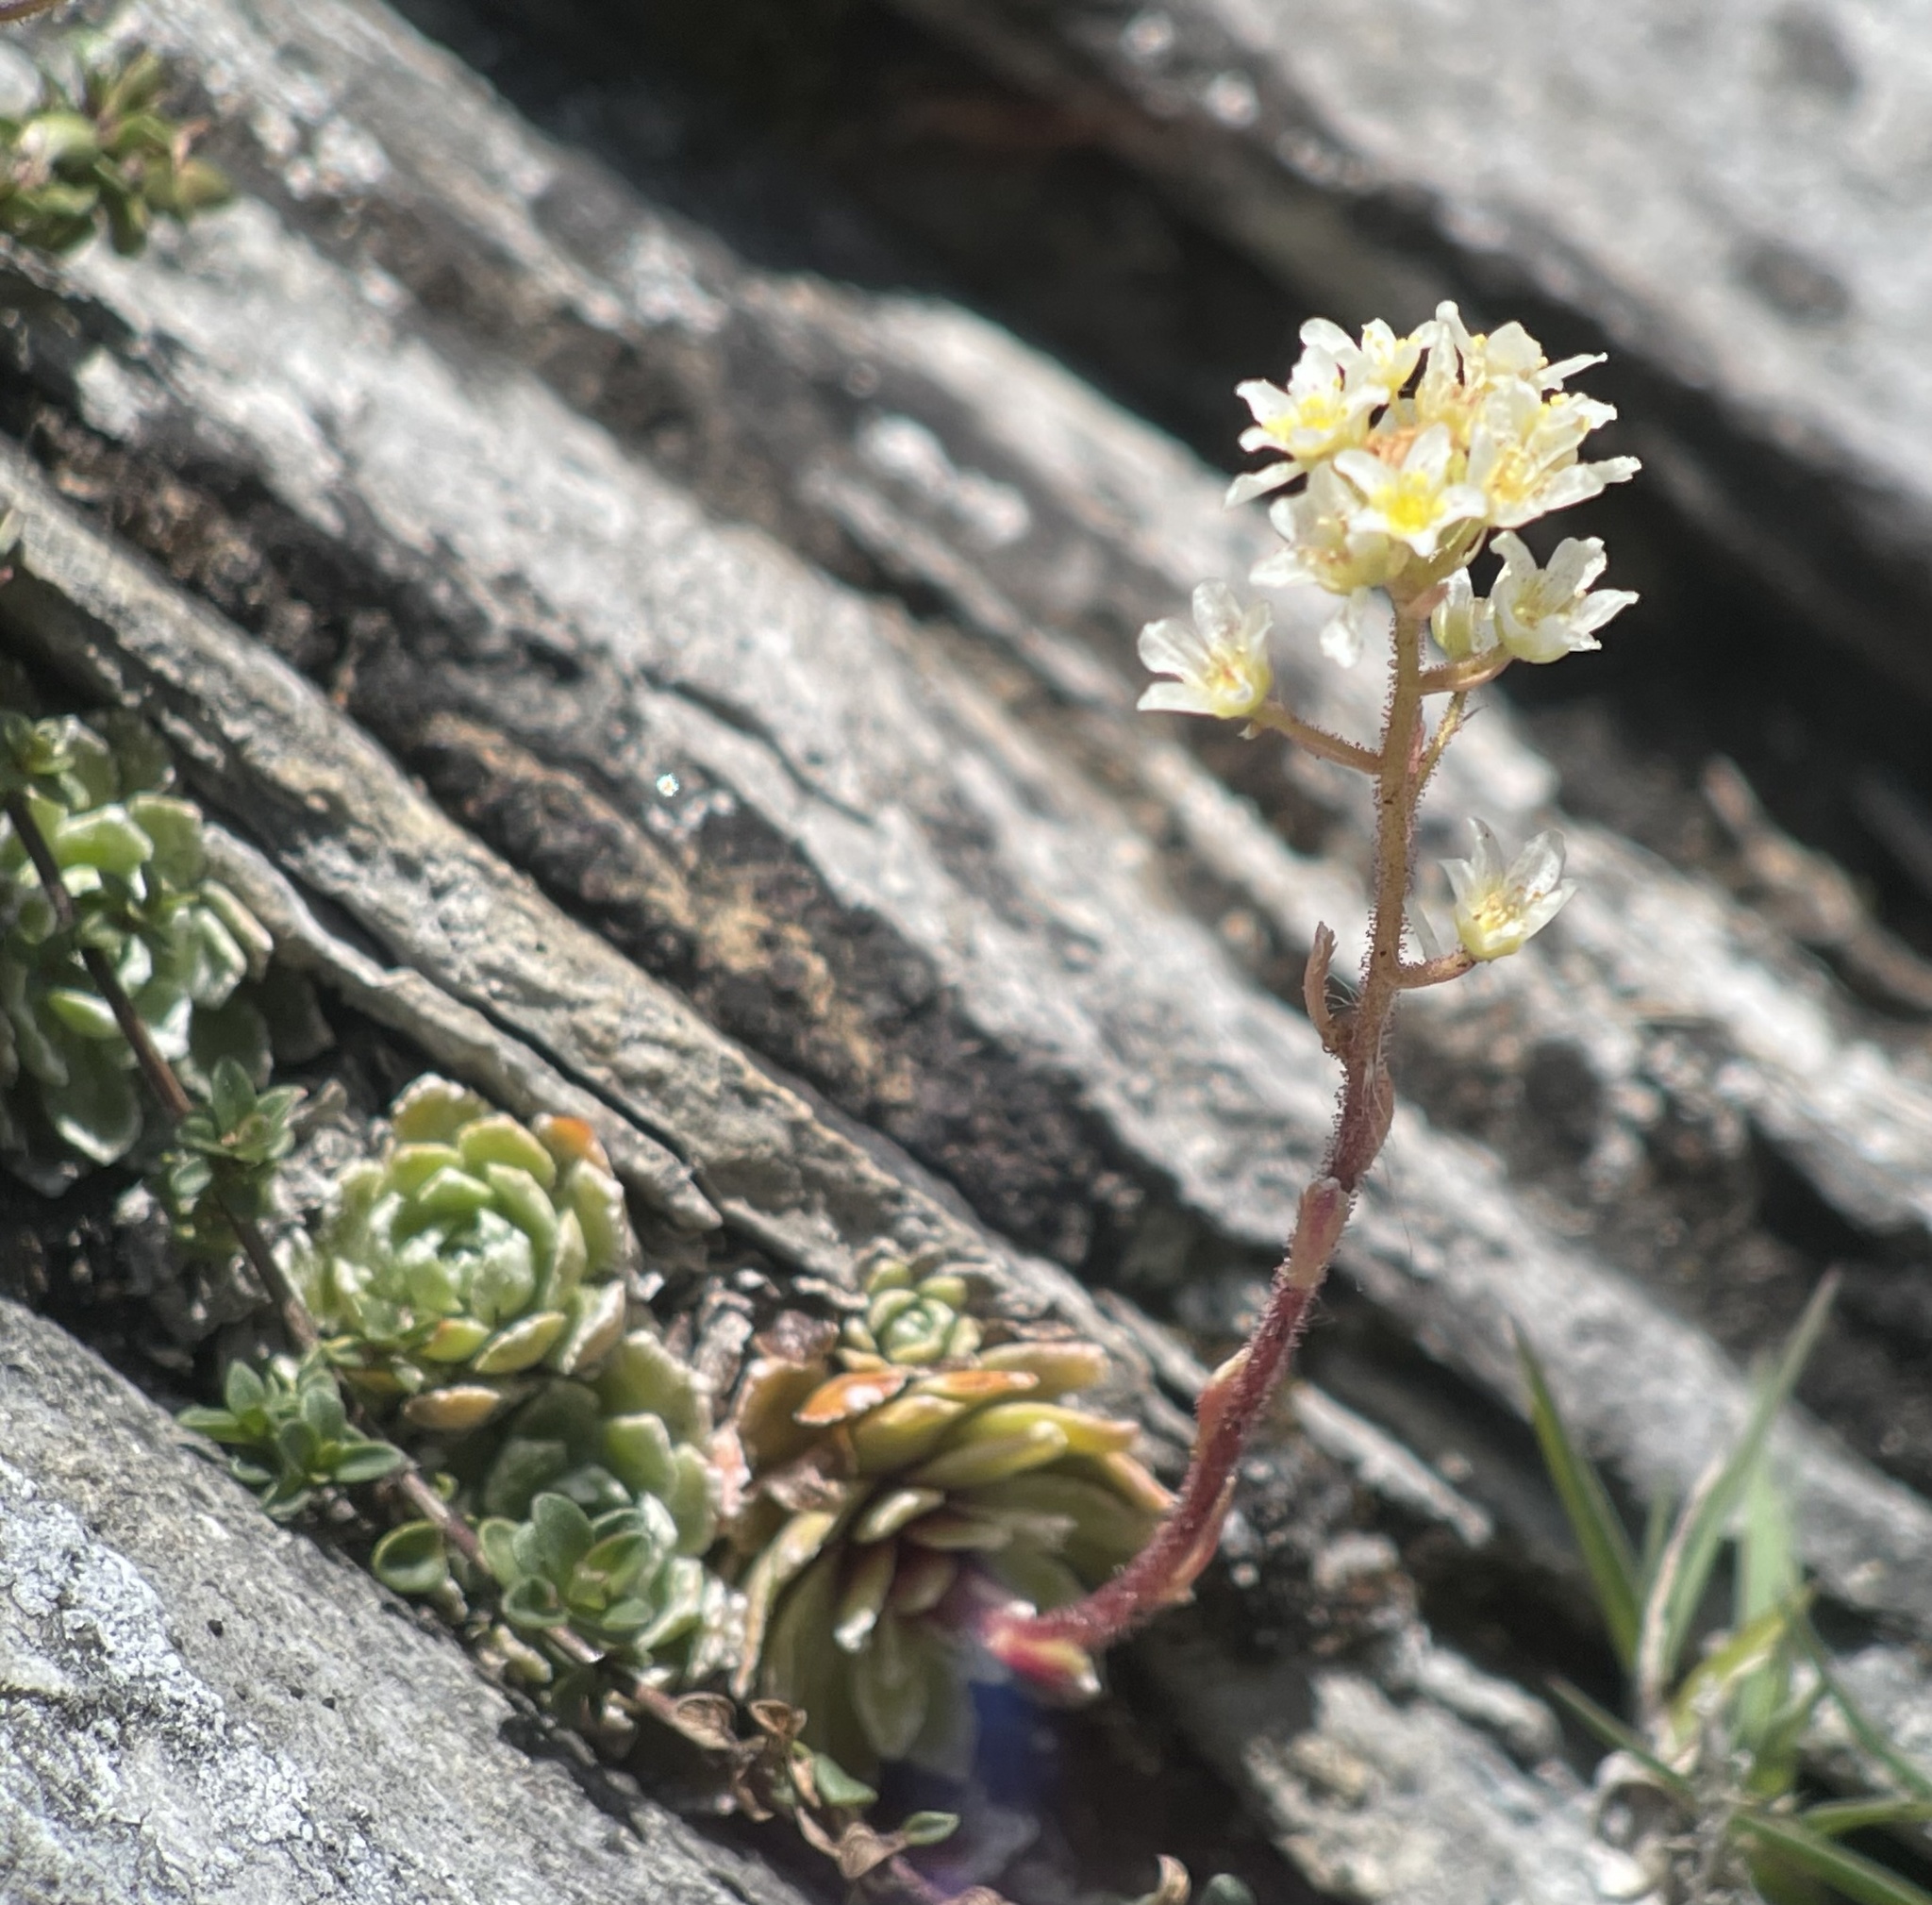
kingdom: Plantae
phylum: Tracheophyta
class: Magnoliopsida
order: Saxifragales
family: Saxifragaceae
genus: Saxifraga
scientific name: Saxifraga paniculata
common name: Livelong saxifrage
